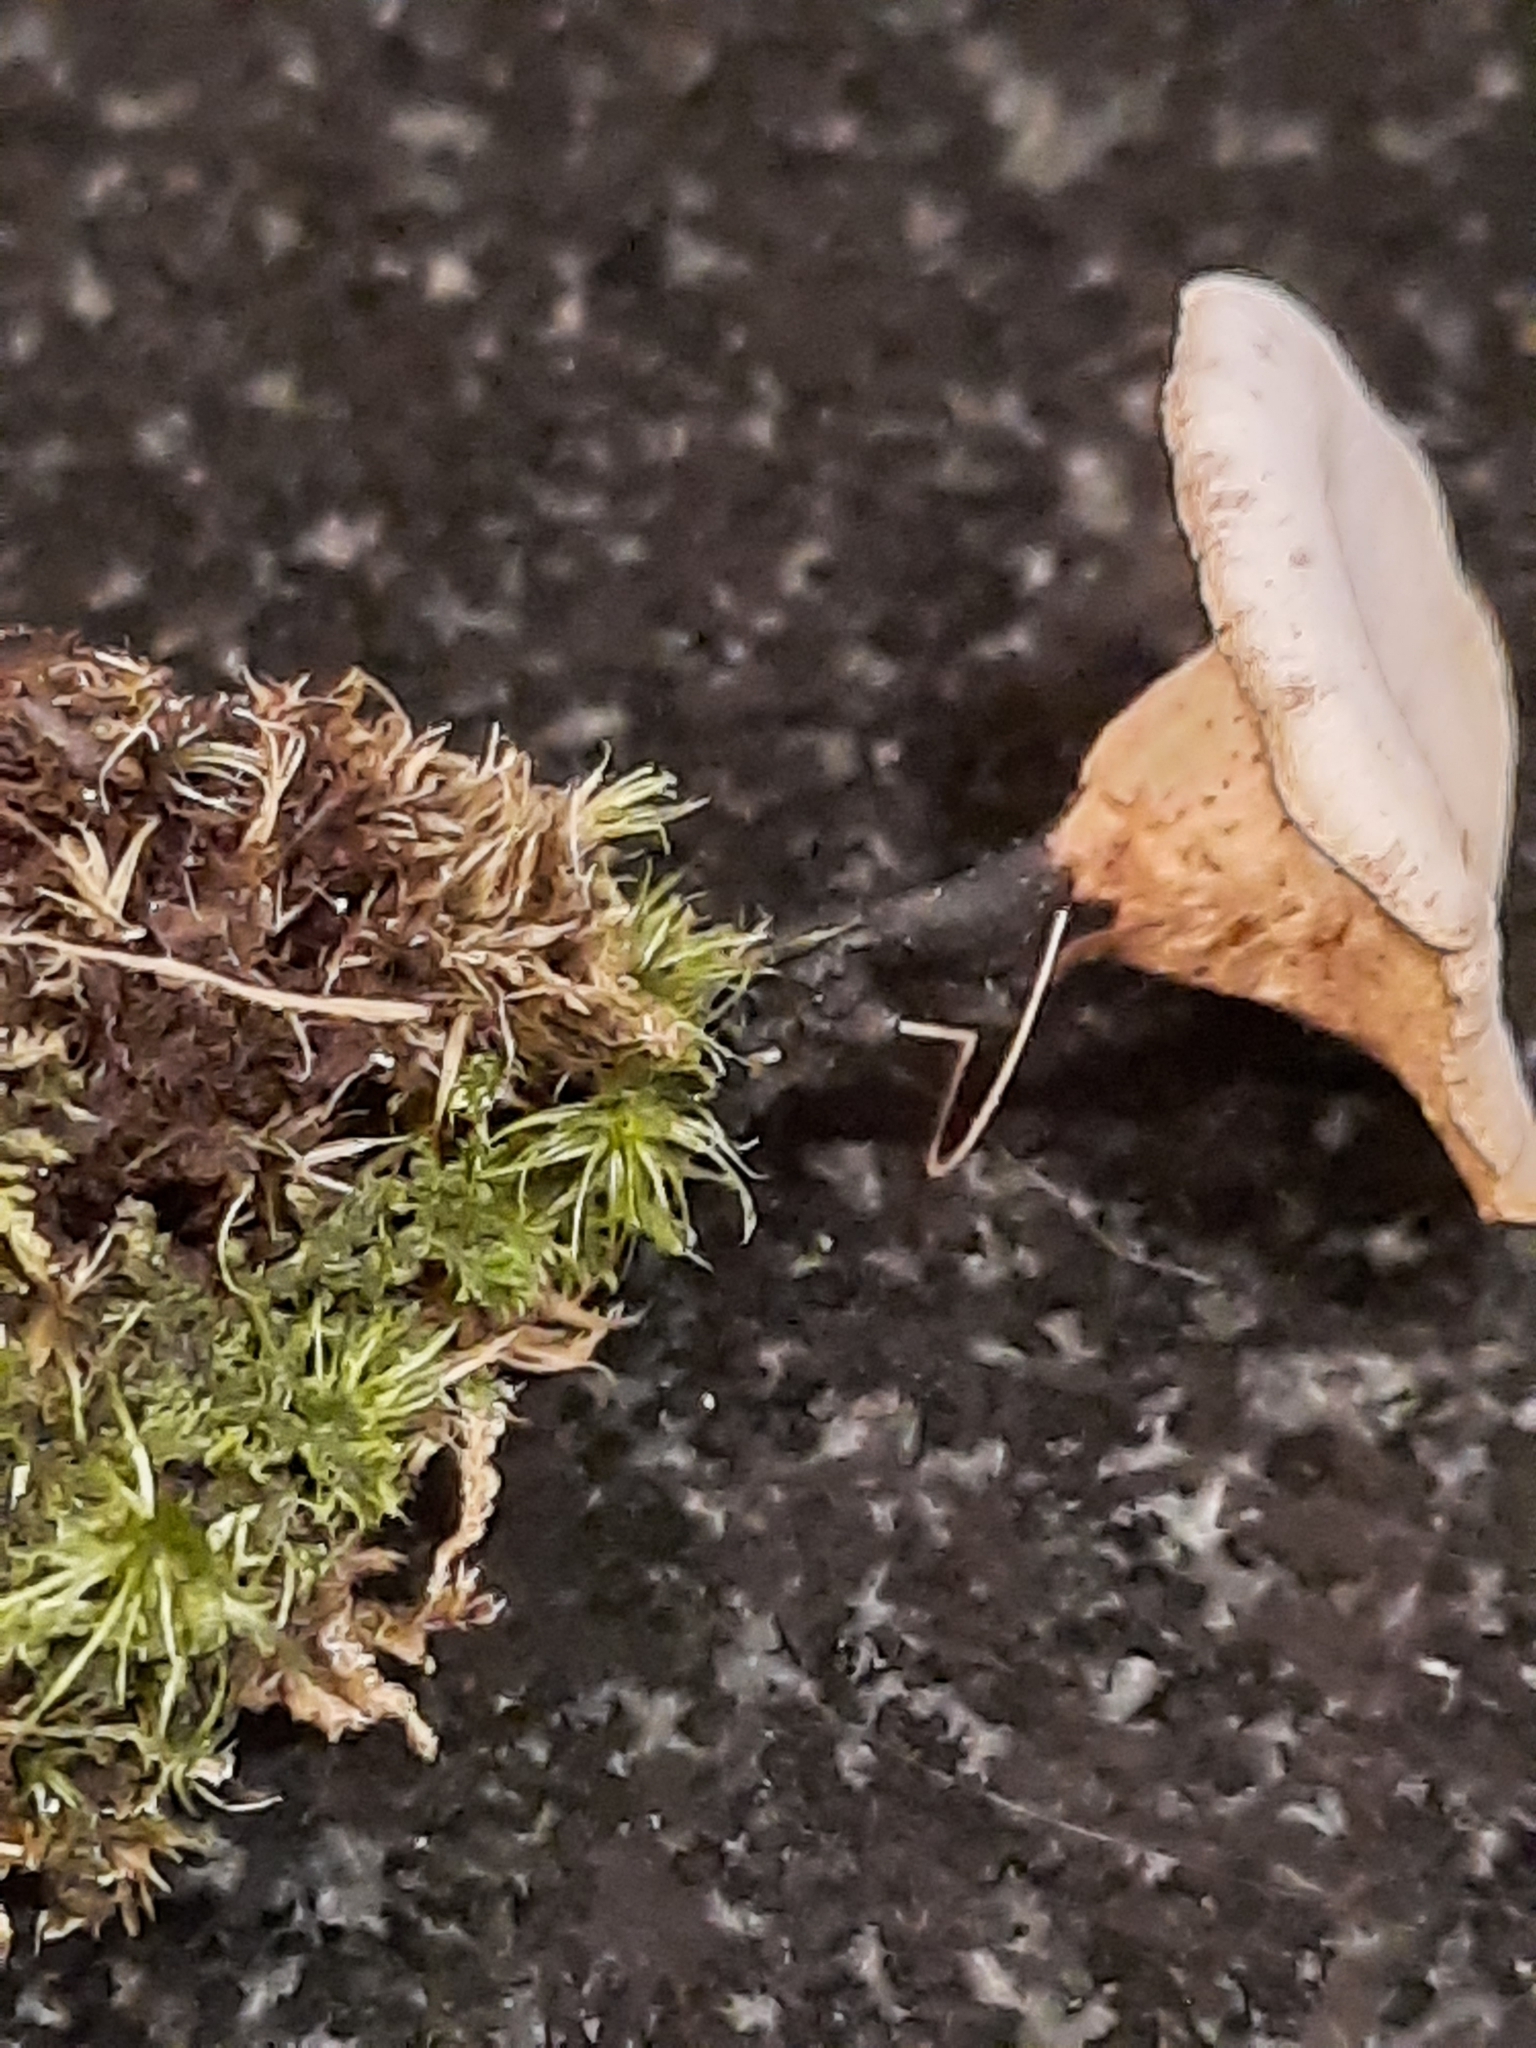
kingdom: Fungi
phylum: Basidiomycota
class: Agaricomycetes
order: Polyporales
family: Polyporaceae
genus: Cerioporus
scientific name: Cerioporus leptocephalus
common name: Blackfoot polypore
